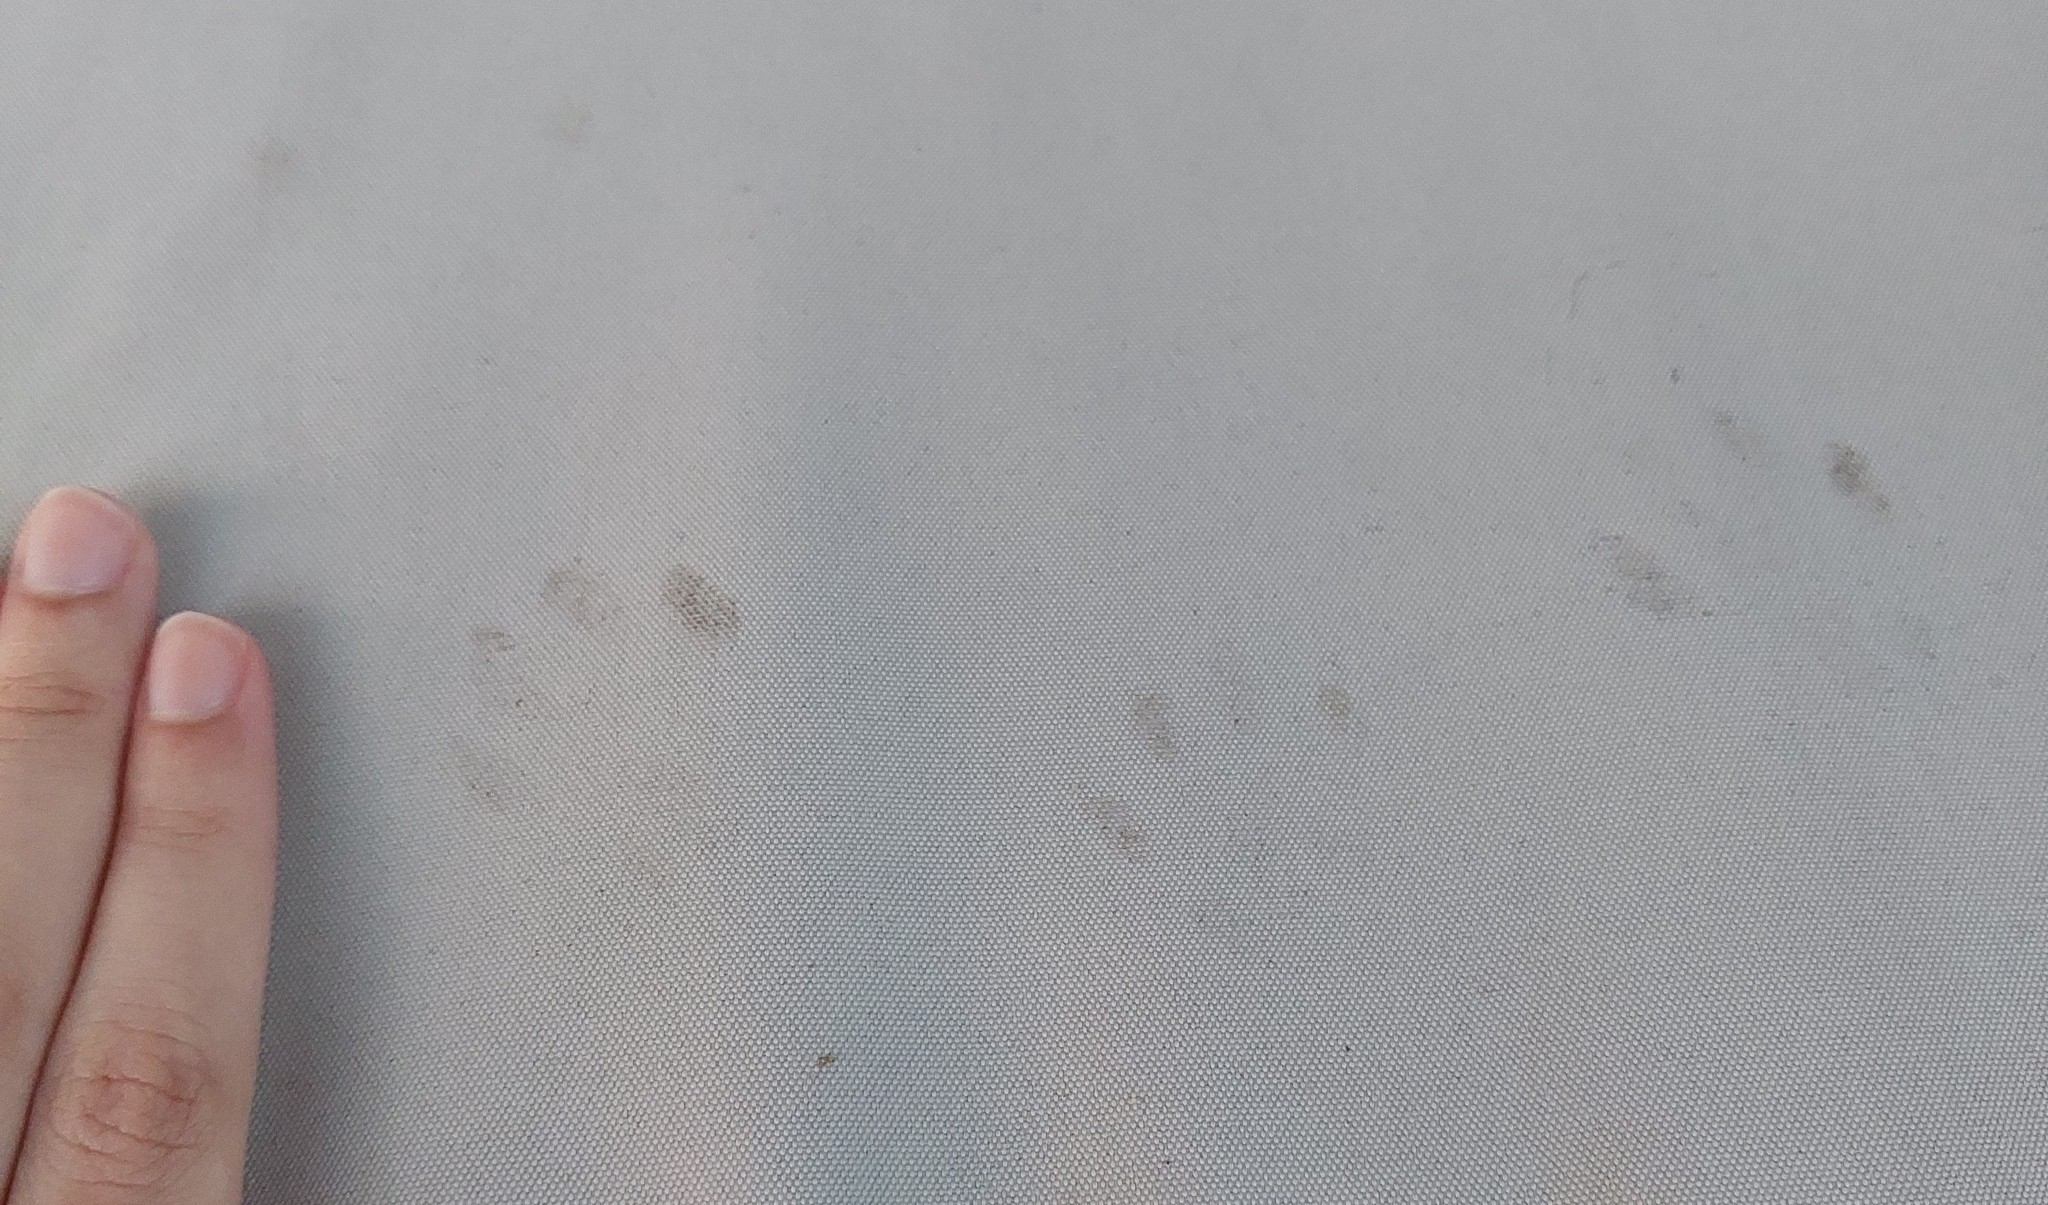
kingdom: Animalia
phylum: Chordata
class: Mammalia
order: Carnivora
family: Felidae
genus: Felis
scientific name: Felis catus
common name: Domestic cat
